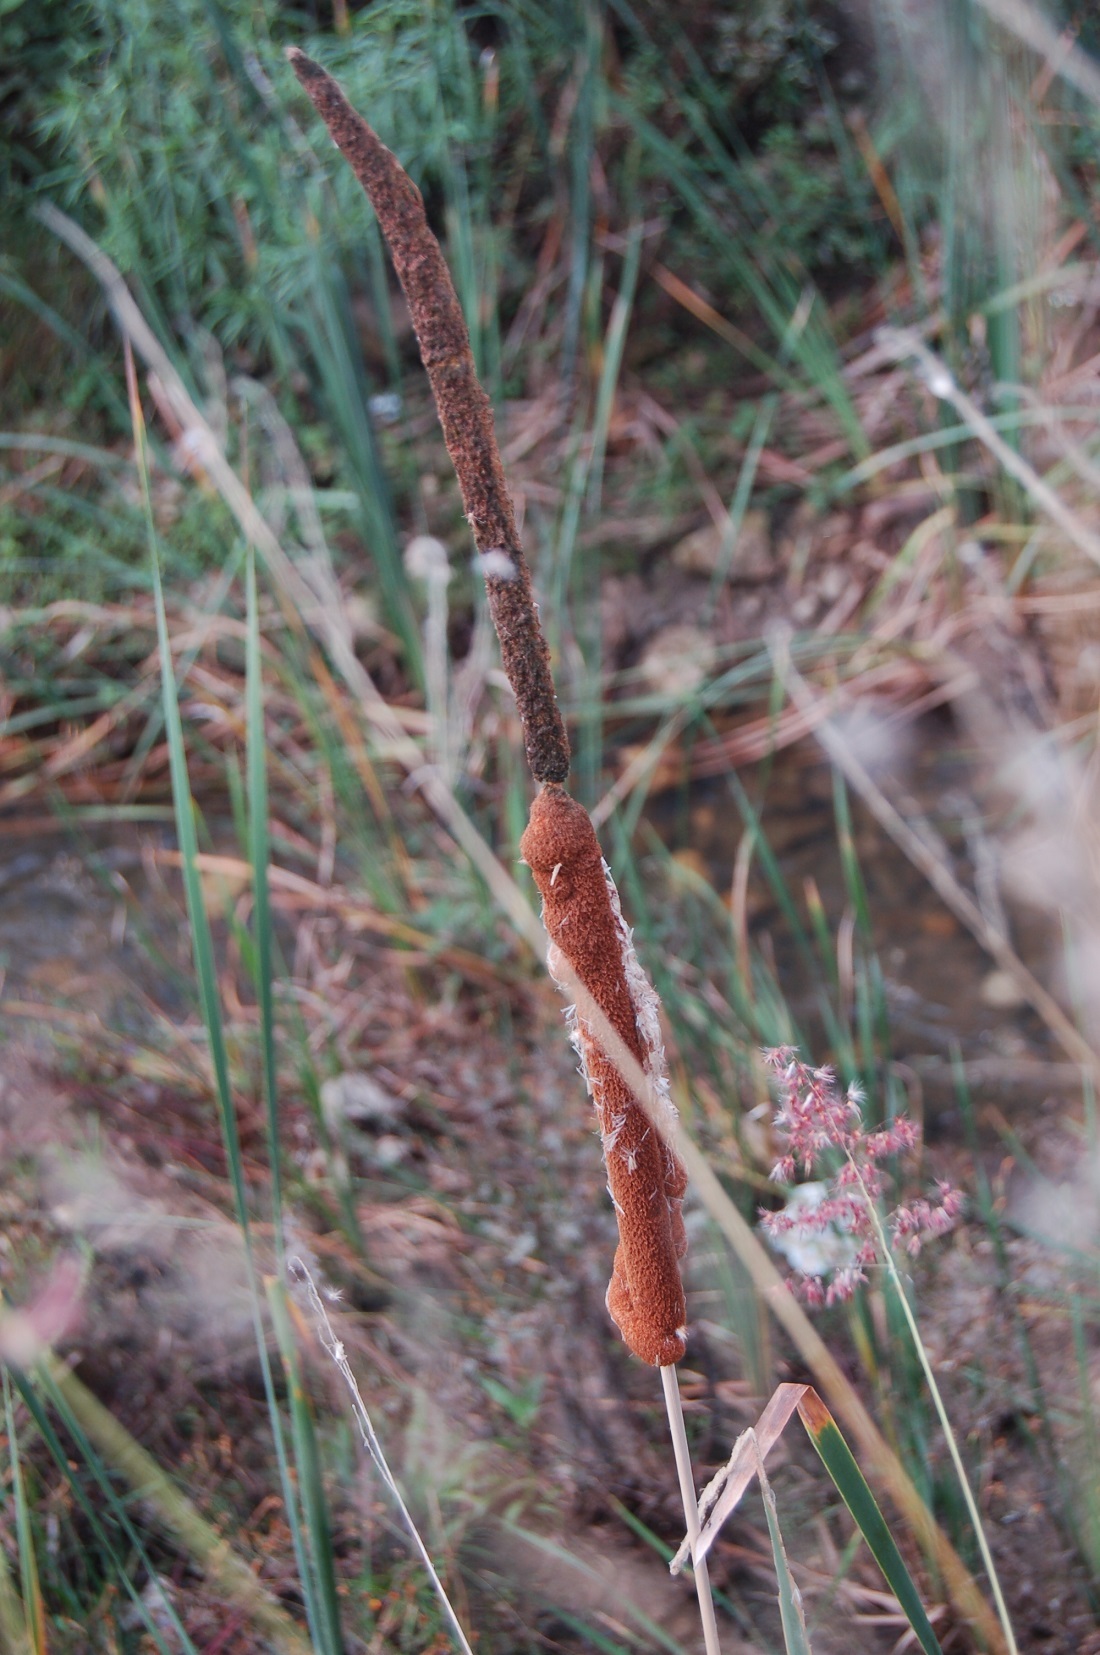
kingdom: Plantae
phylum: Tracheophyta
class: Liliopsida
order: Poales
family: Typhaceae
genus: Typha
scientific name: Typha domingensis
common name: Southern cattail
